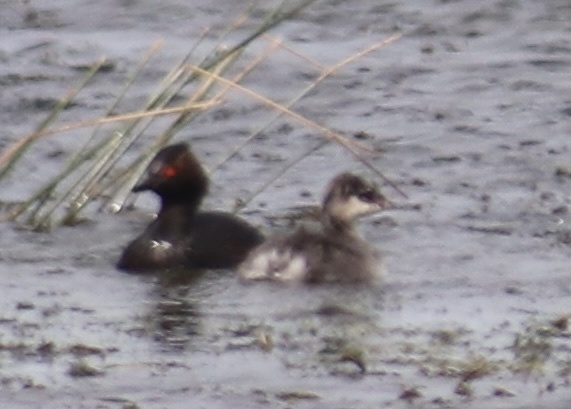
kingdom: Animalia
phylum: Chordata
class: Aves
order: Podicipediformes
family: Podicipedidae
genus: Podiceps
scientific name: Podiceps nigricollis
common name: Black-necked grebe
